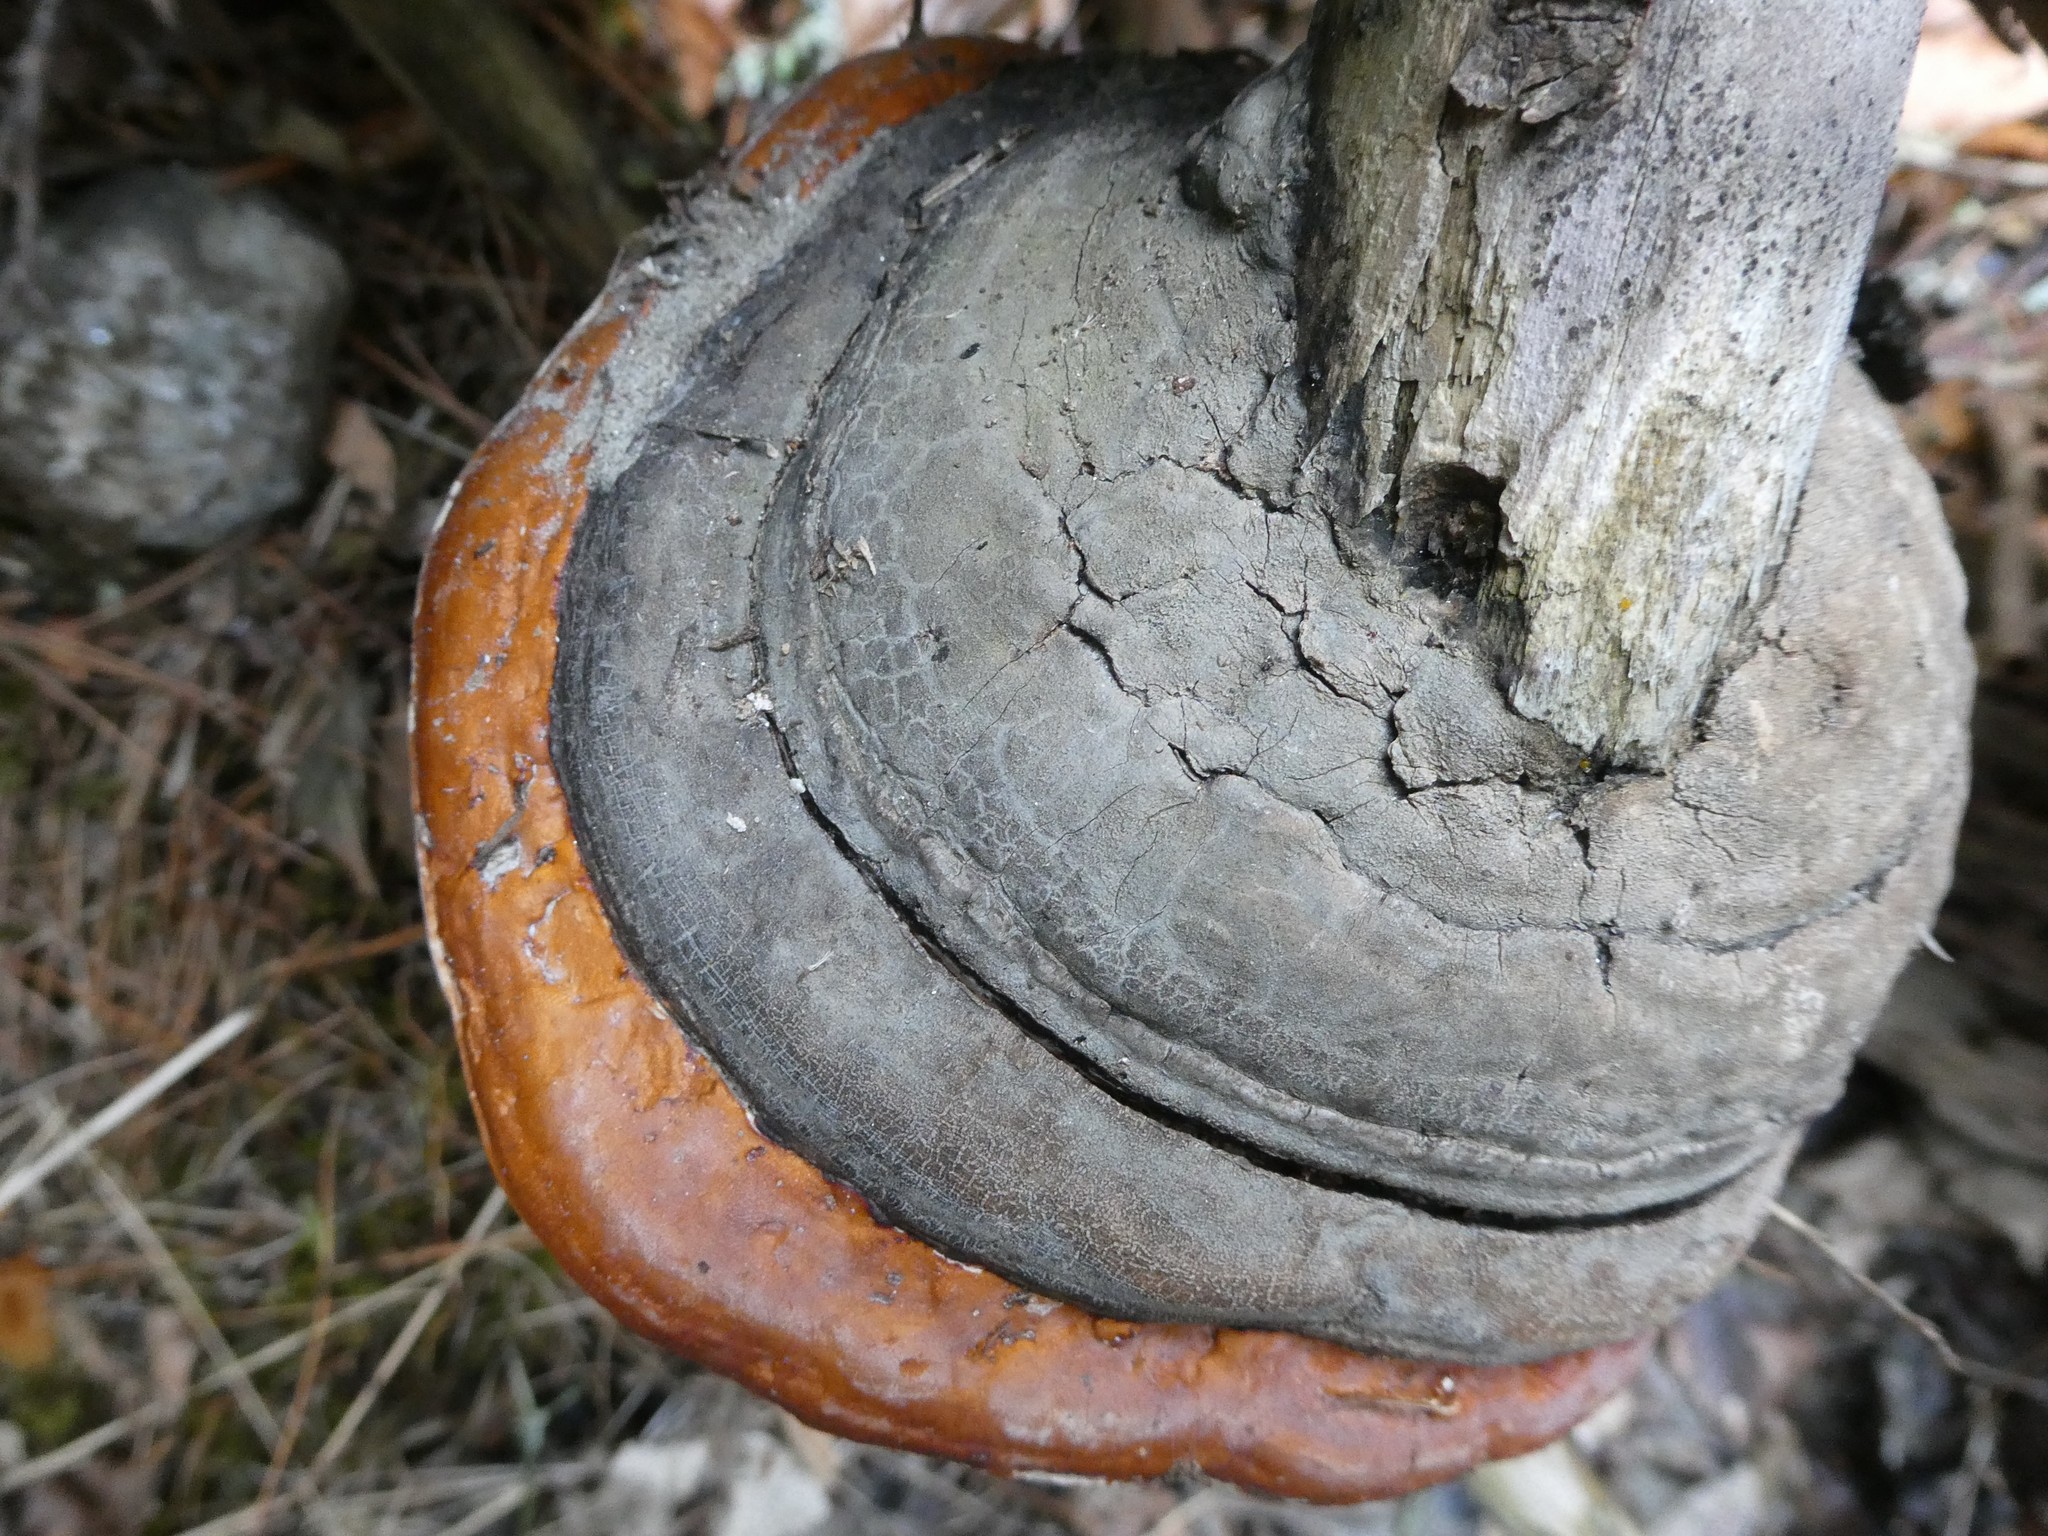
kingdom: Fungi
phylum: Basidiomycota
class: Agaricomycetes
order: Polyporales
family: Fomitopsidaceae
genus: Fomitopsis
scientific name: Fomitopsis mounceae
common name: Northern red belt
